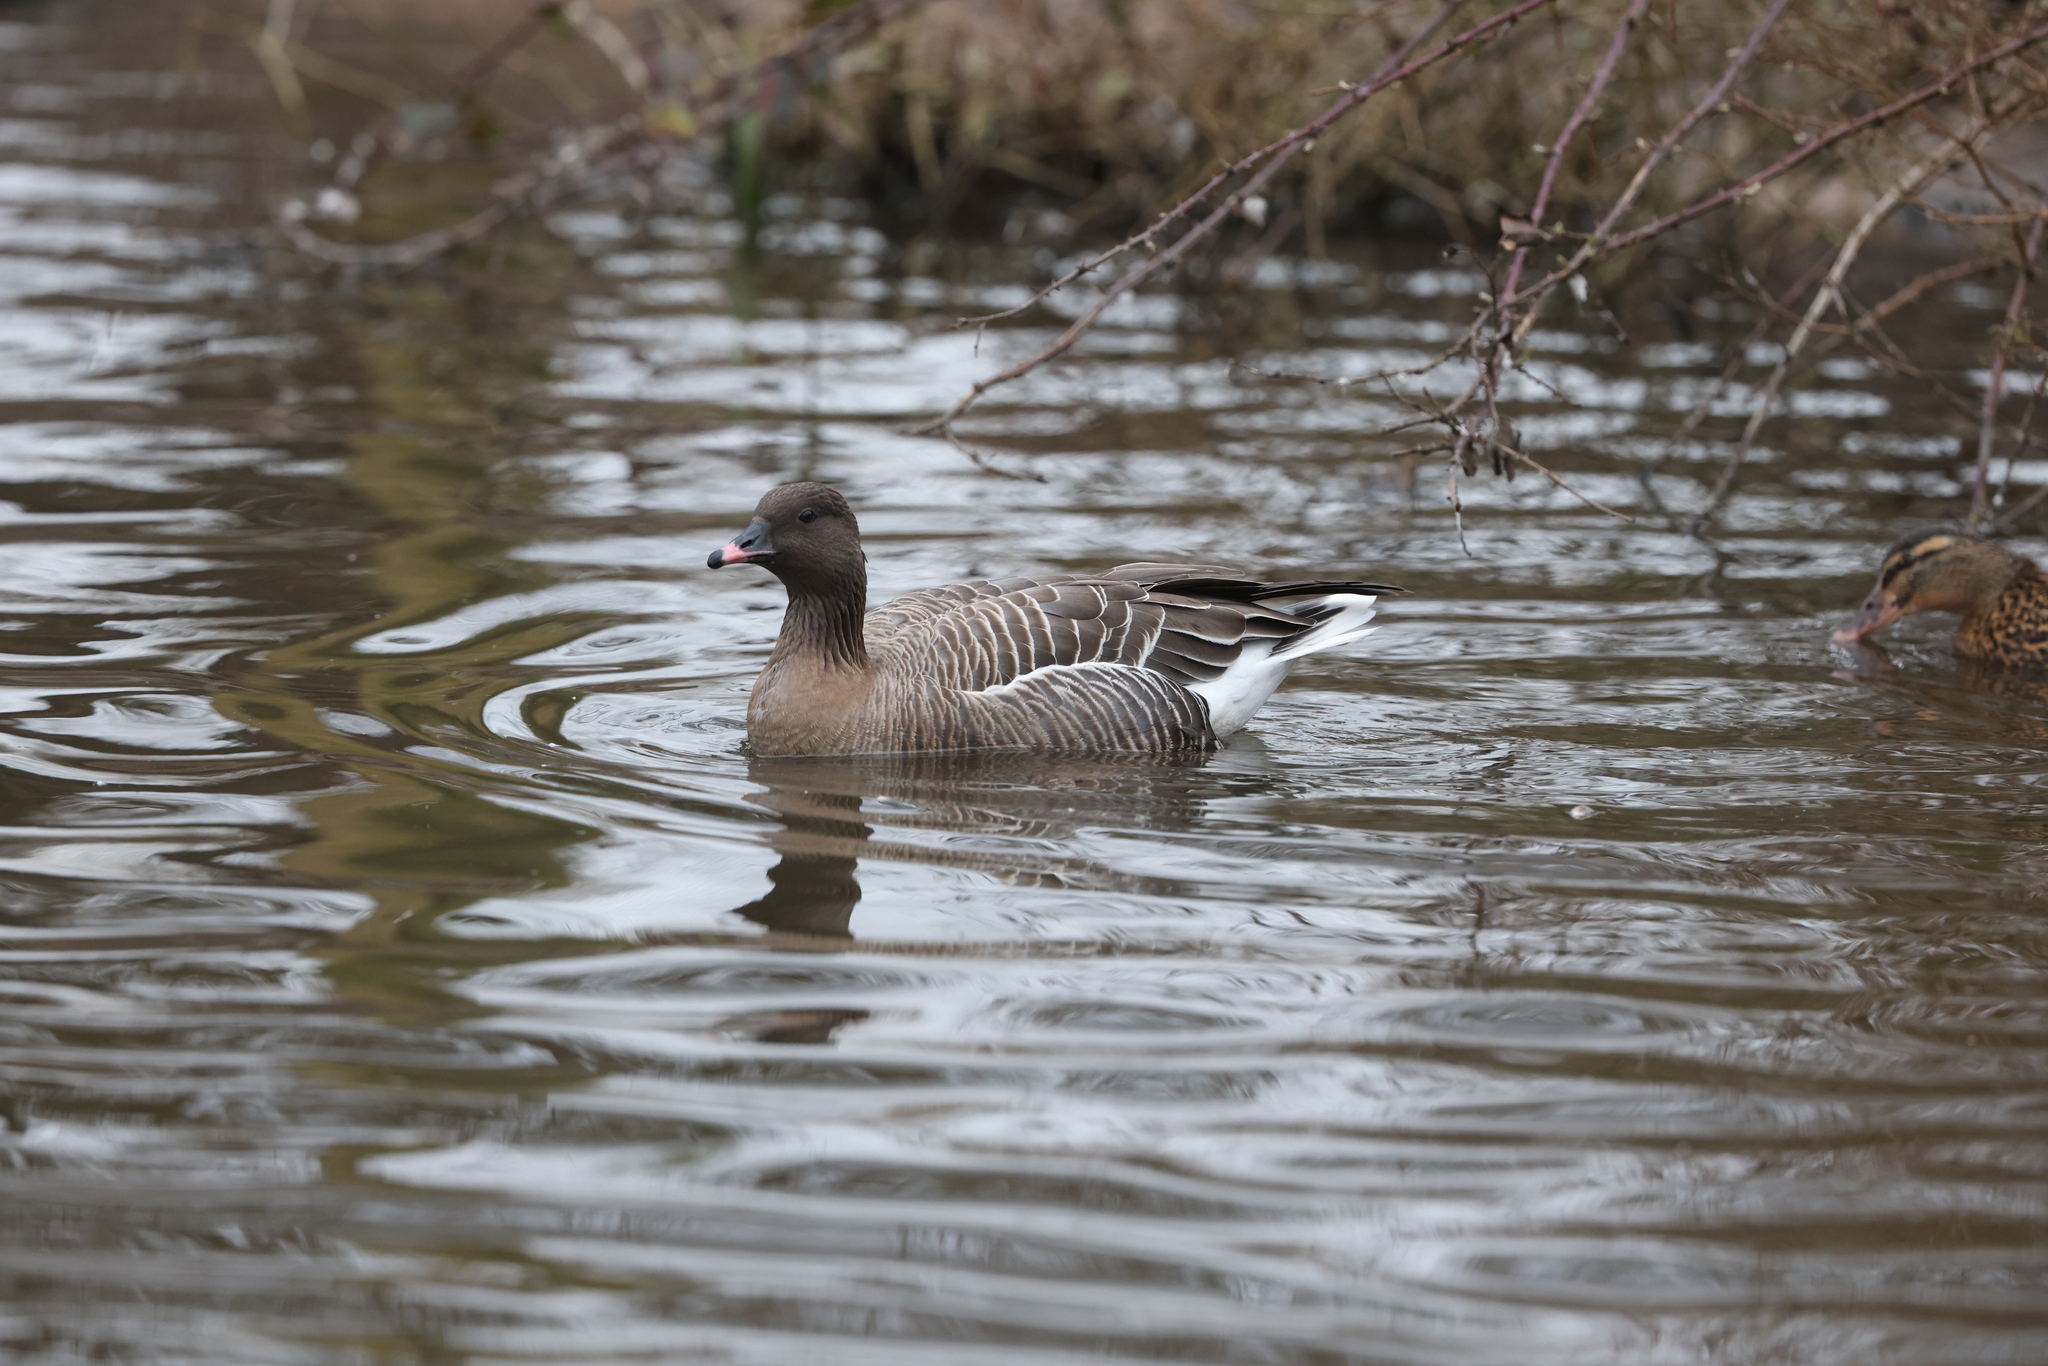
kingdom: Animalia
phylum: Chordata
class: Aves
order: Anseriformes
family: Anatidae
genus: Anser
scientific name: Anser brachyrhynchus
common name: Pink-footed goose
